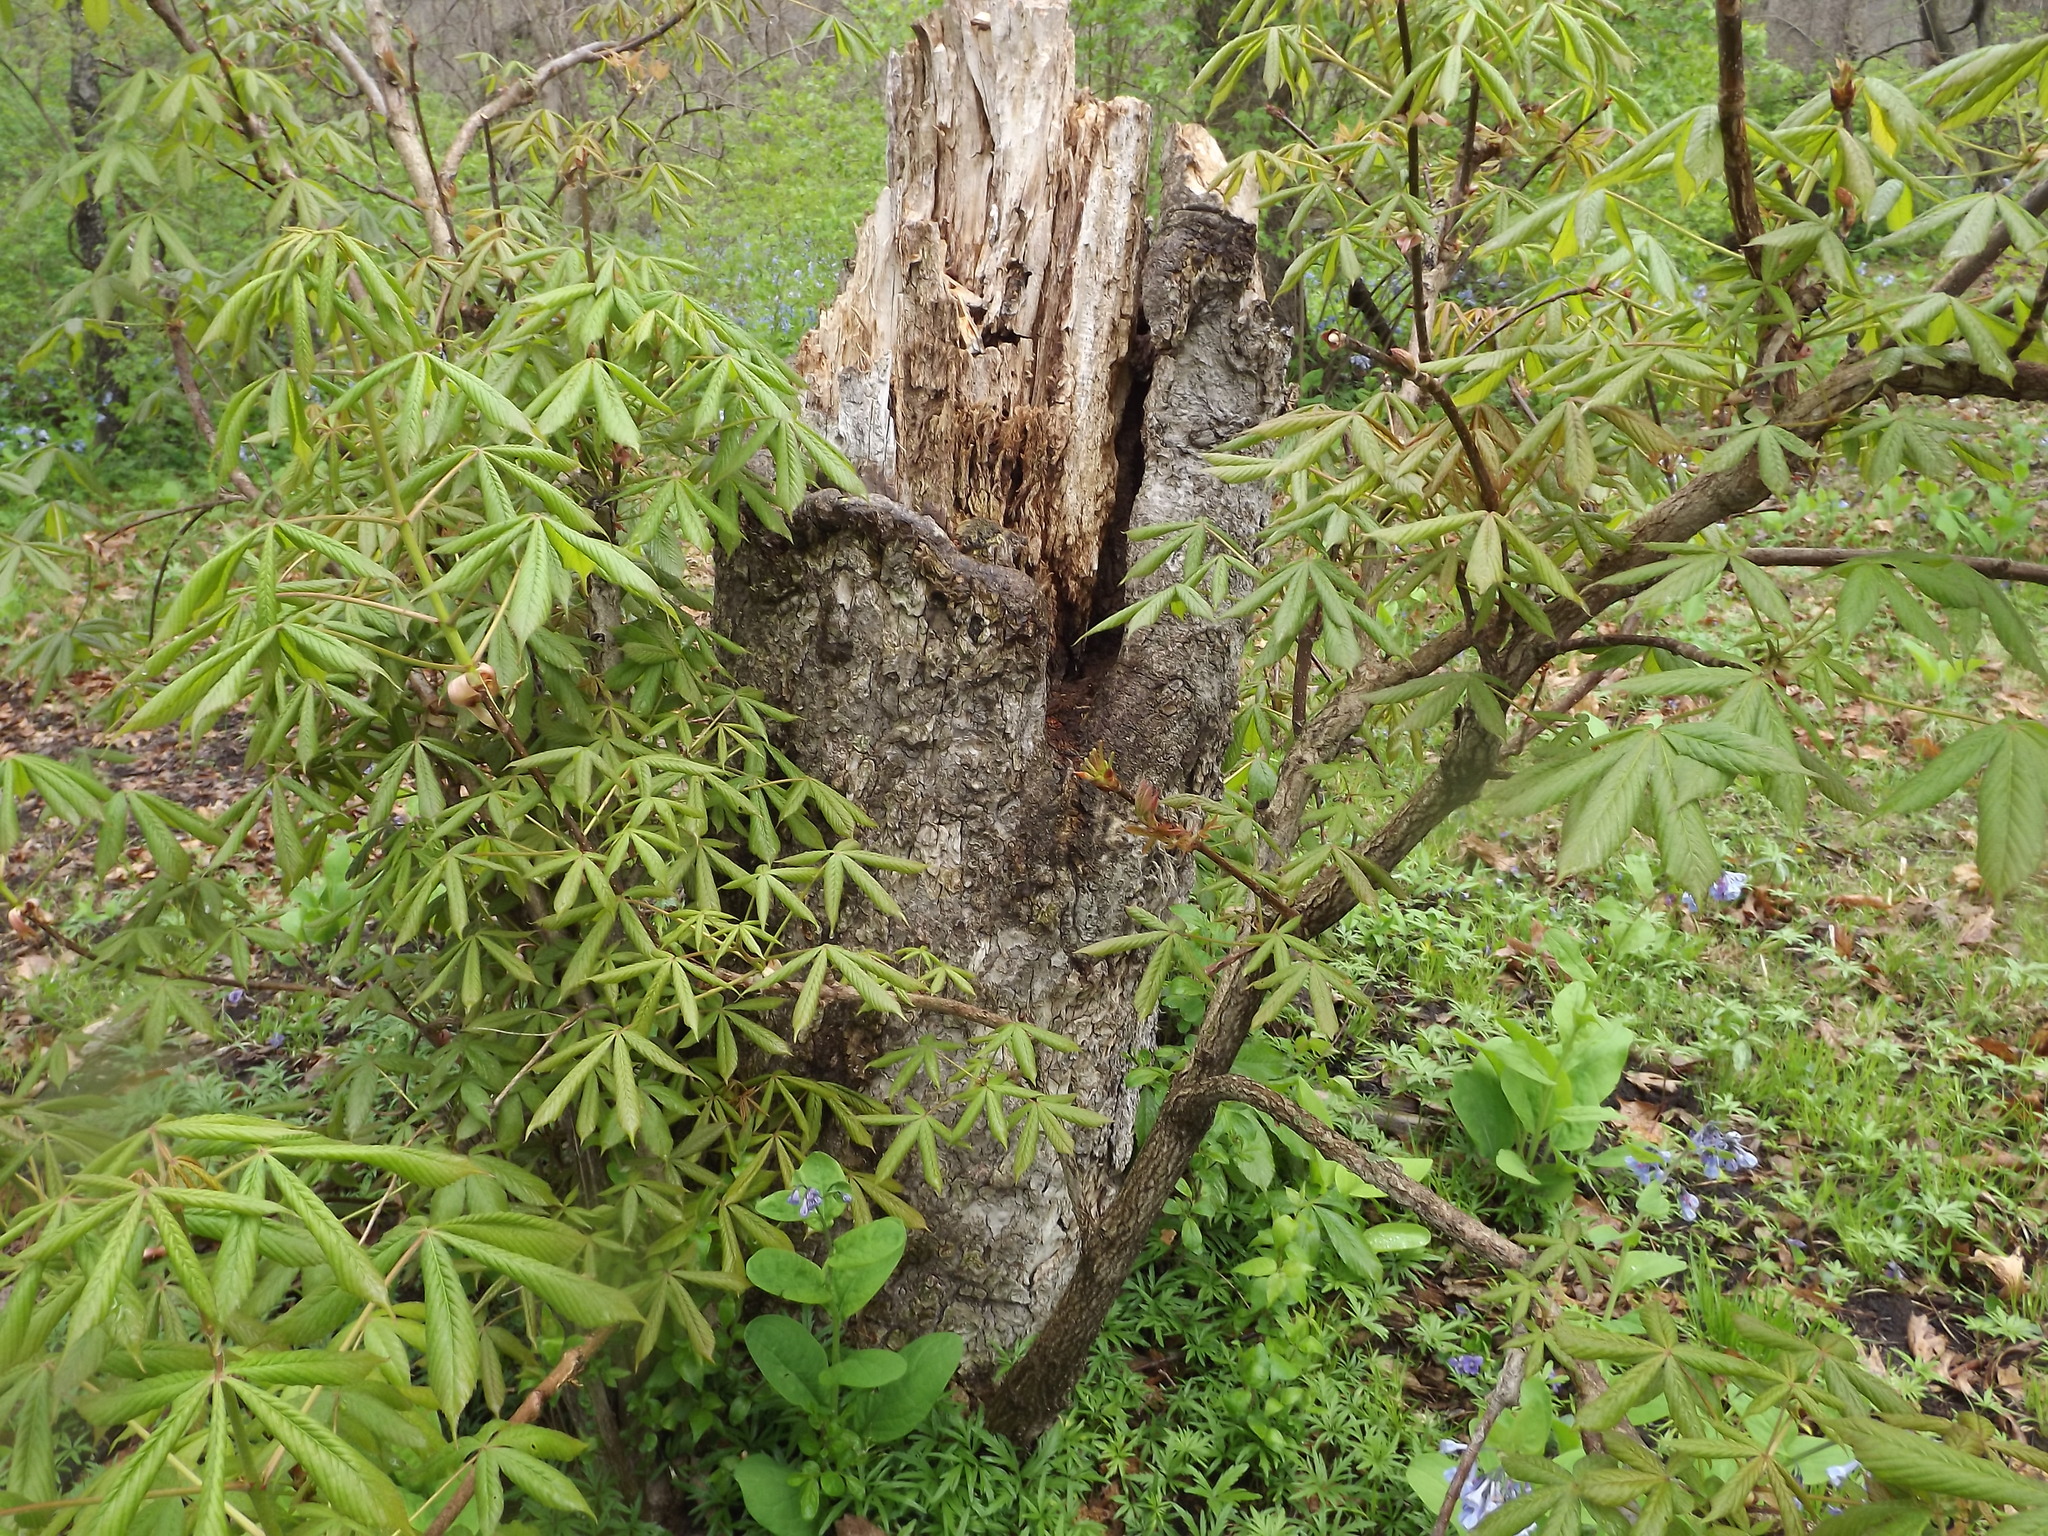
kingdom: Plantae
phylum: Tracheophyta
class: Magnoliopsida
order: Sapindales
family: Sapindaceae
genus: Aesculus
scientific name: Aesculus glabra
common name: Ohio buckeye
